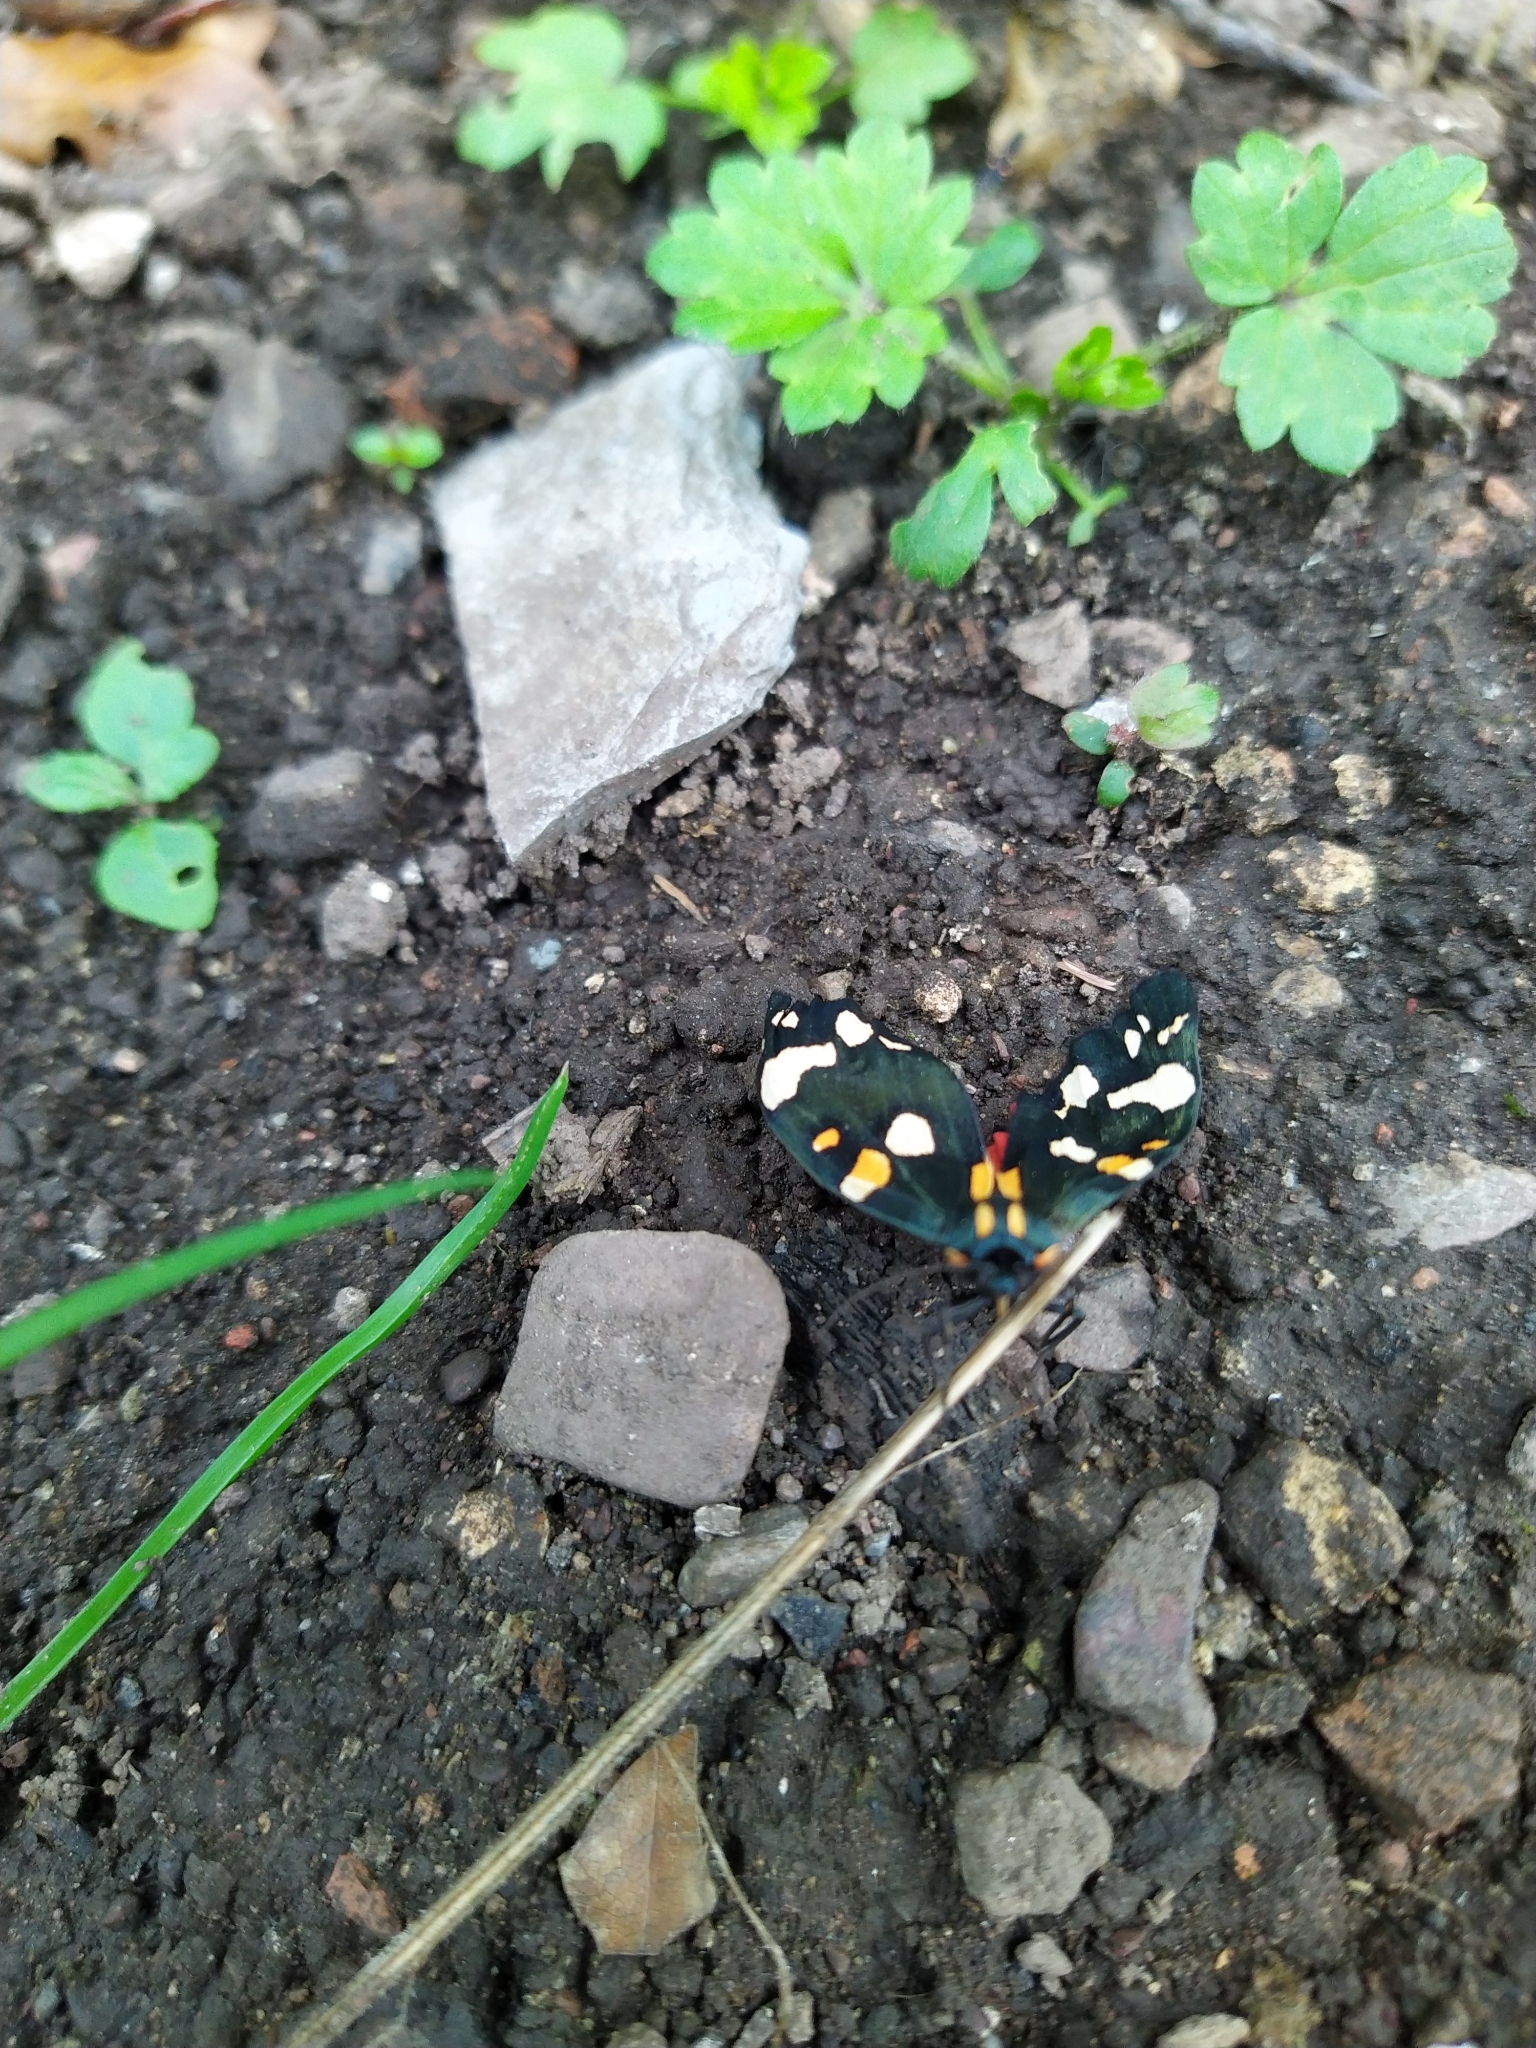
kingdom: Animalia
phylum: Arthropoda
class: Insecta
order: Lepidoptera
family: Erebidae
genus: Callimorpha
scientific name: Callimorpha dominula
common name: Scarlet tiger
